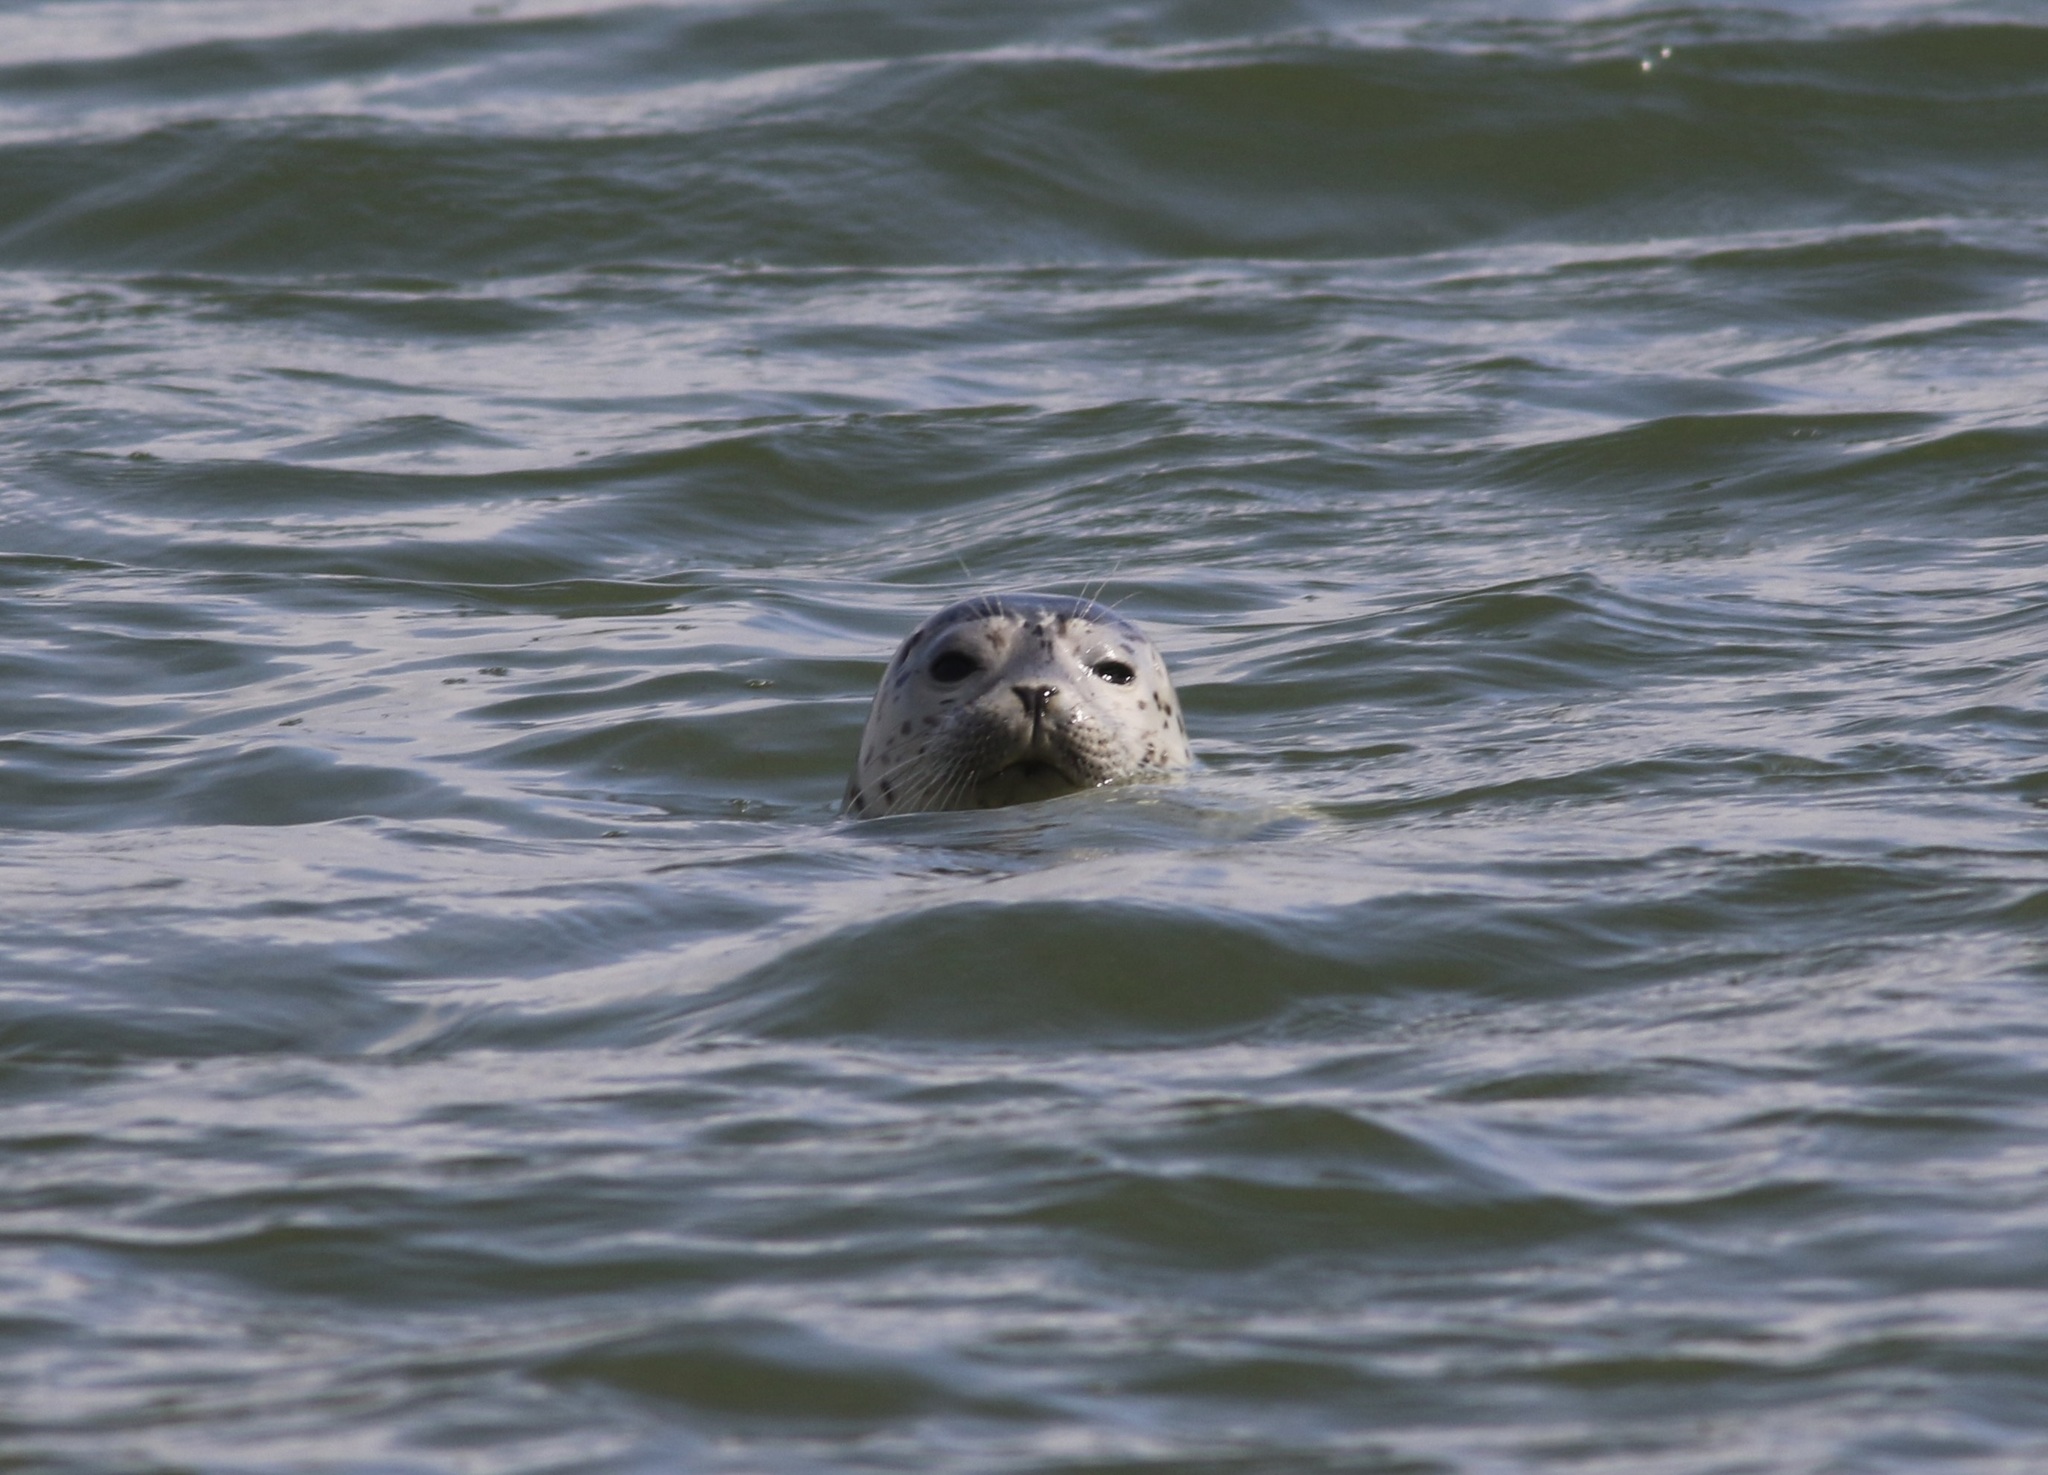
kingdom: Animalia
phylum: Chordata
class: Mammalia
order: Carnivora
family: Phocidae
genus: Phoca
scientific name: Phoca vitulina
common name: Harbor seal
